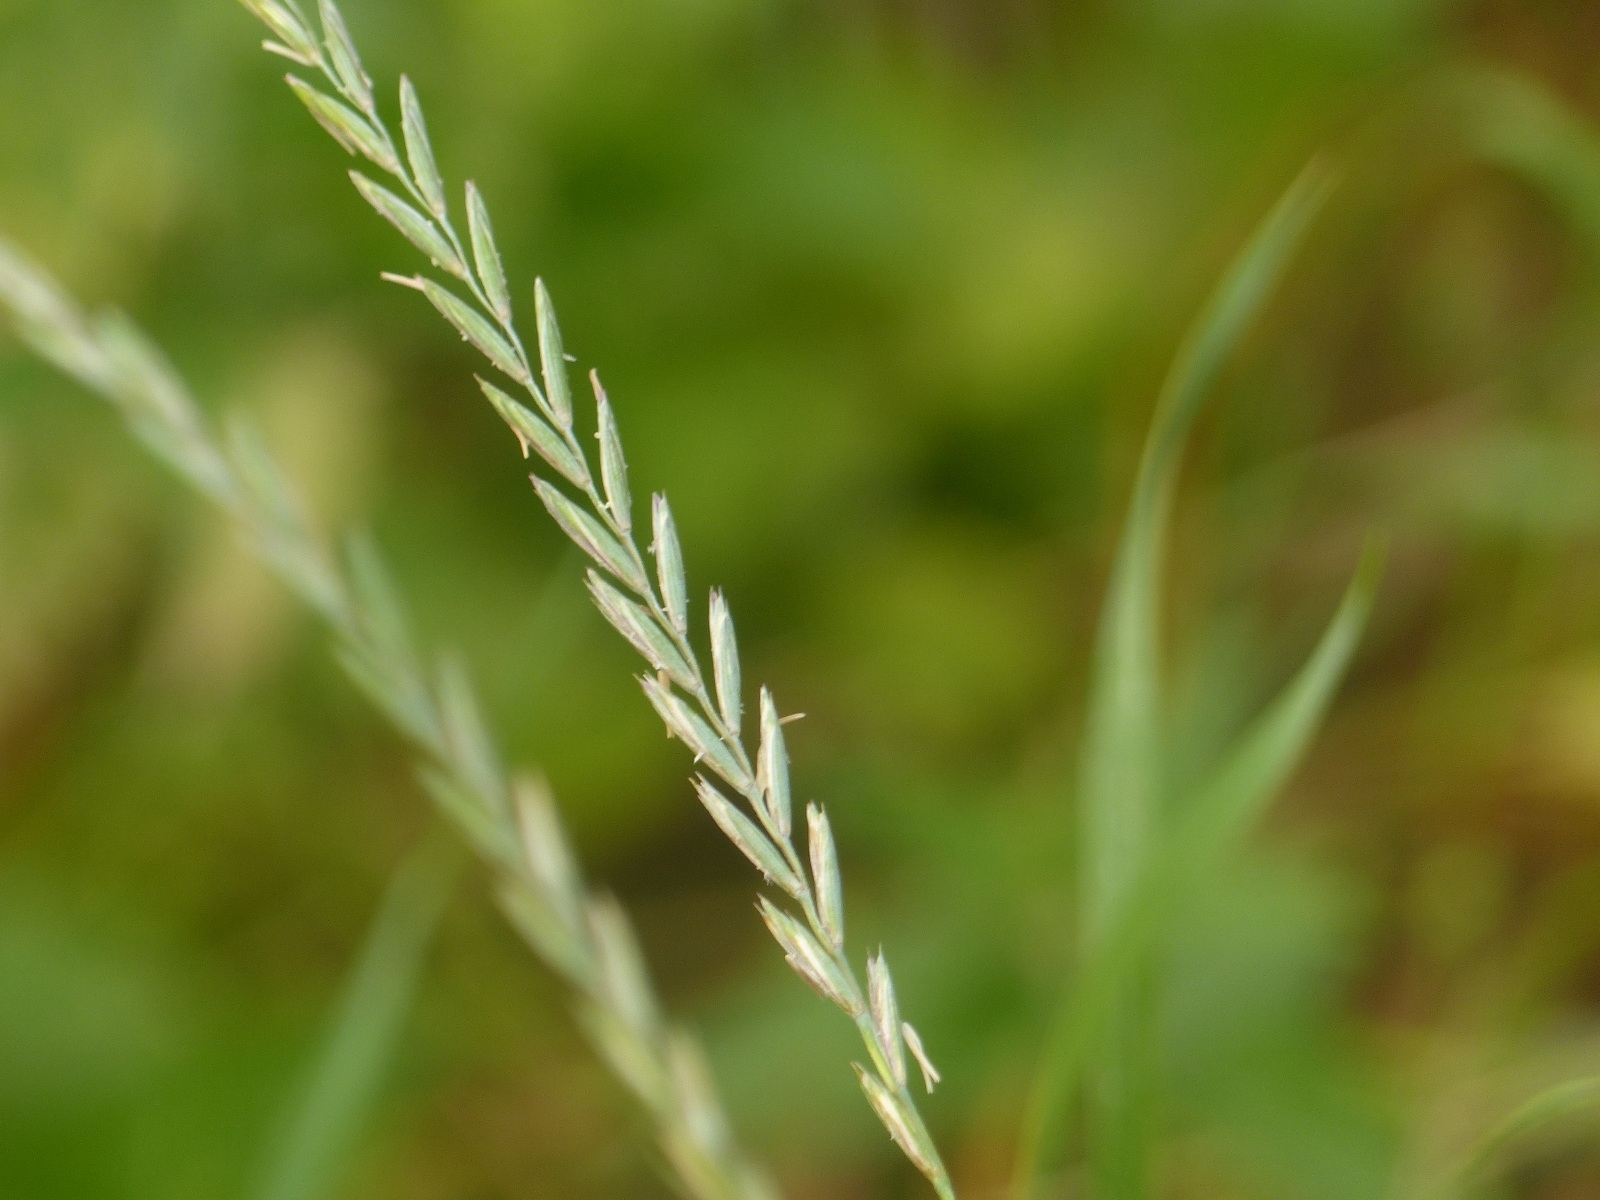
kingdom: Plantae
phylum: Tracheophyta
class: Liliopsida
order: Poales
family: Poaceae
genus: Elymus
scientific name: Elymus repens
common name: Quackgrass
